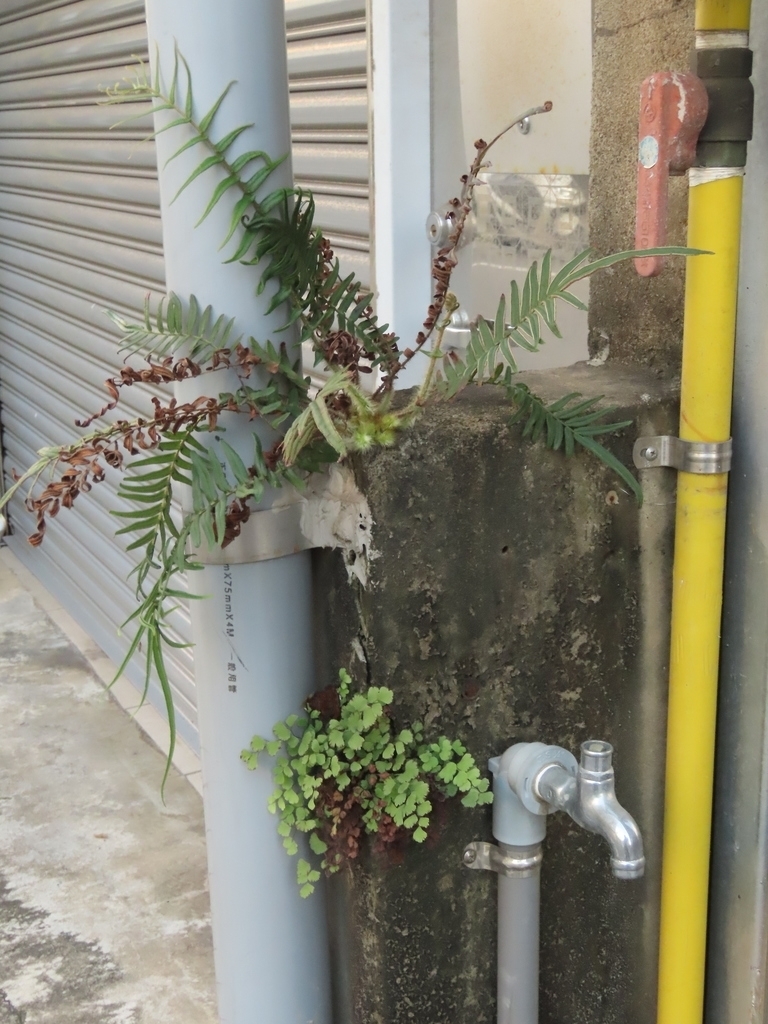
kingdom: Plantae
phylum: Tracheophyta
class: Polypodiopsida
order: Polypodiales
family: Pteridaceae
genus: Pteris
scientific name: Pteris vittata
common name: Ladder brake
